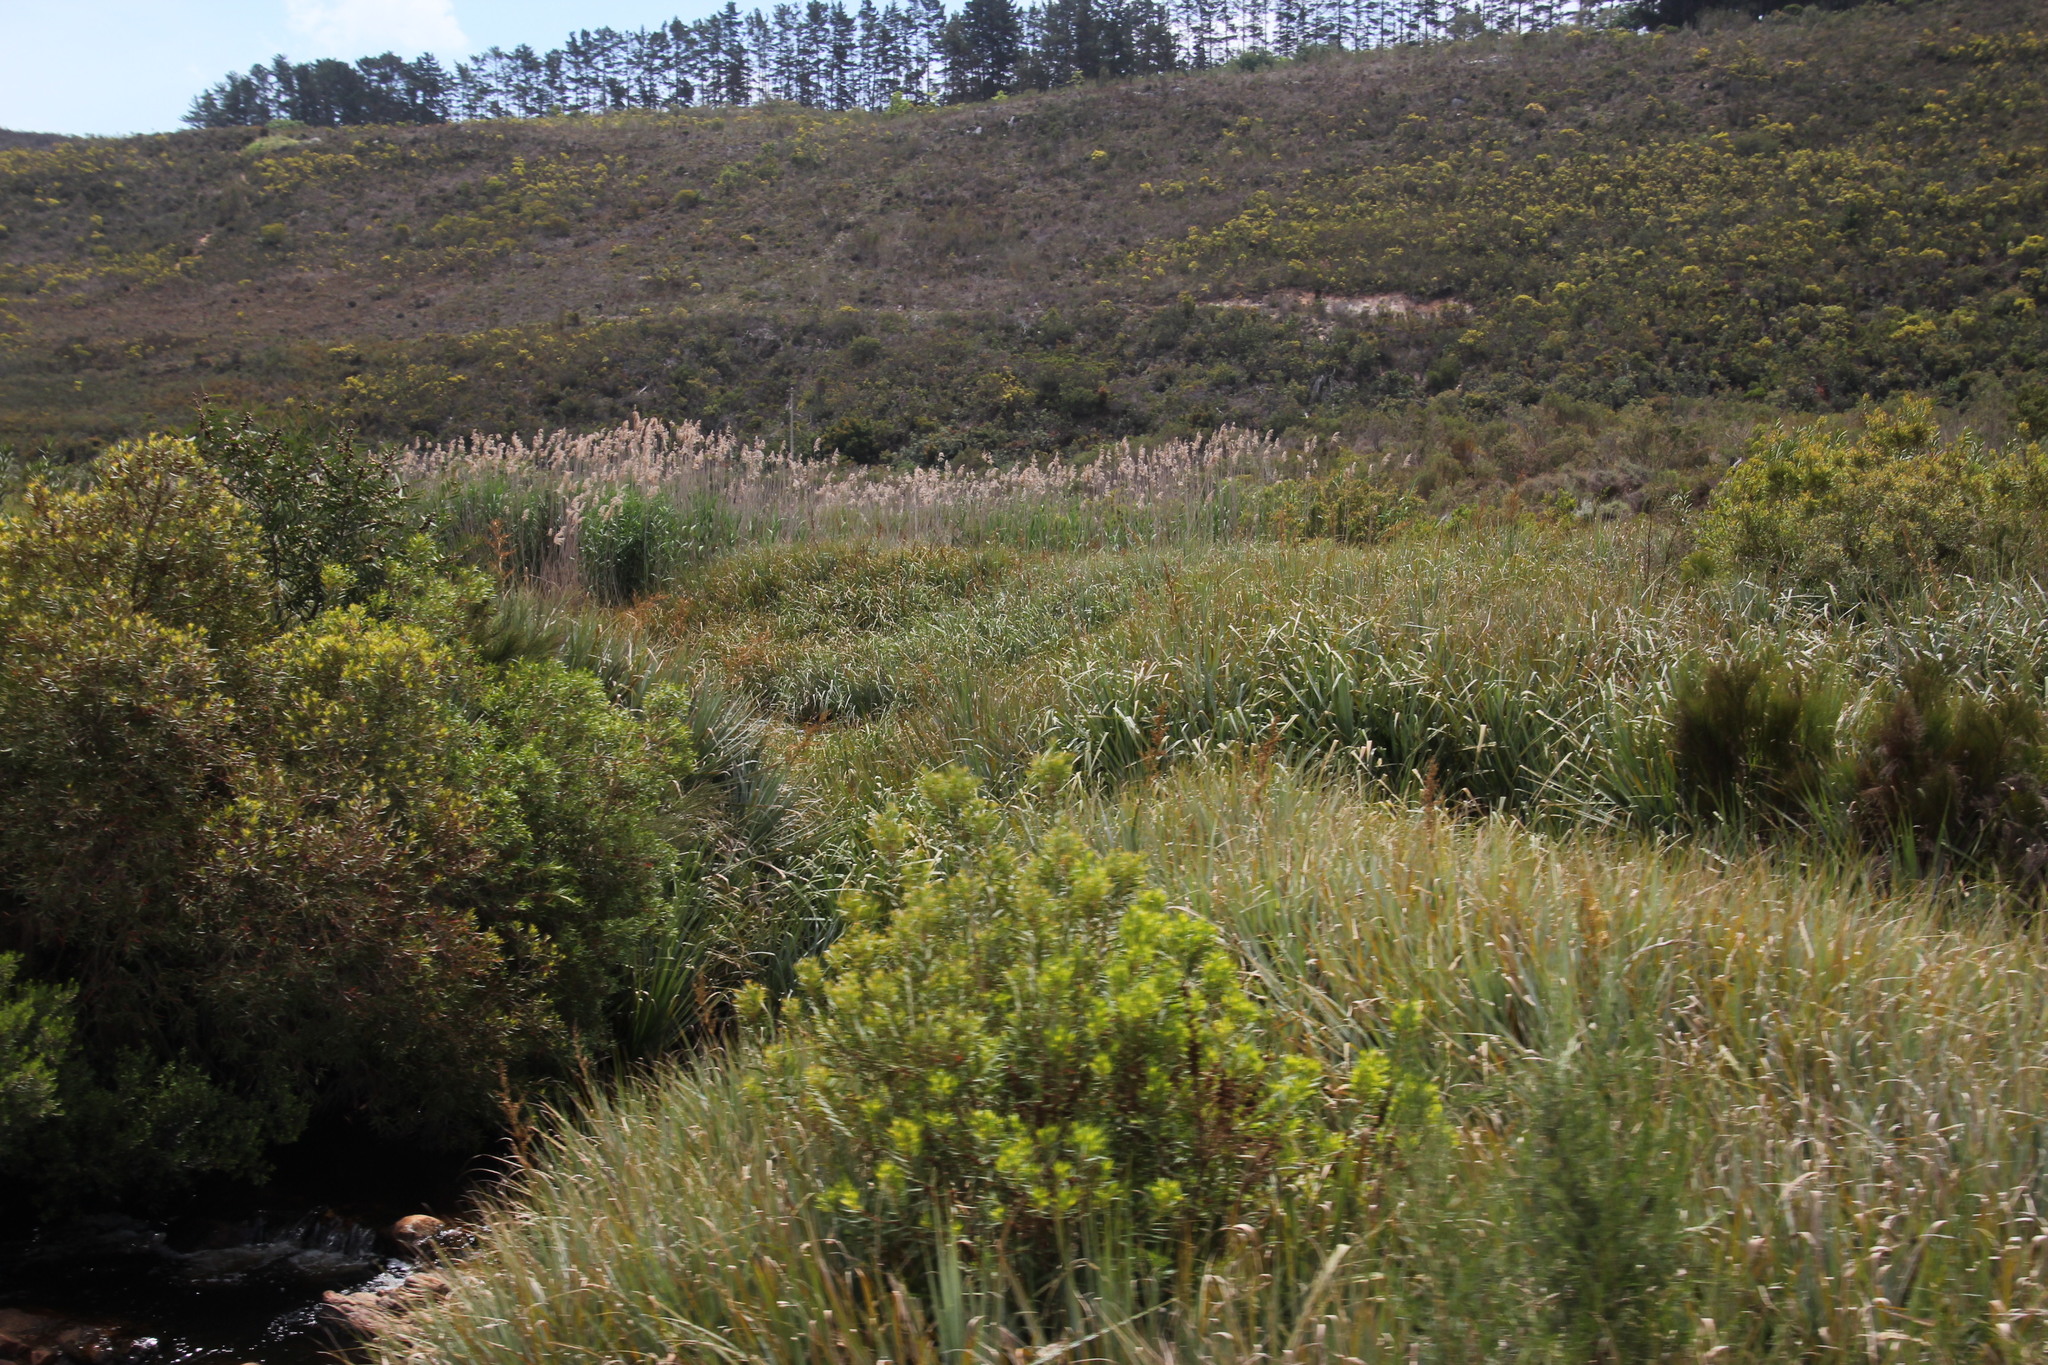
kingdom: Plantae
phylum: Tracheophyta
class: Liliopsida
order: Poales
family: Thurniaceae
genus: Prionium
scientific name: Prionium serratum
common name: Palmiet
